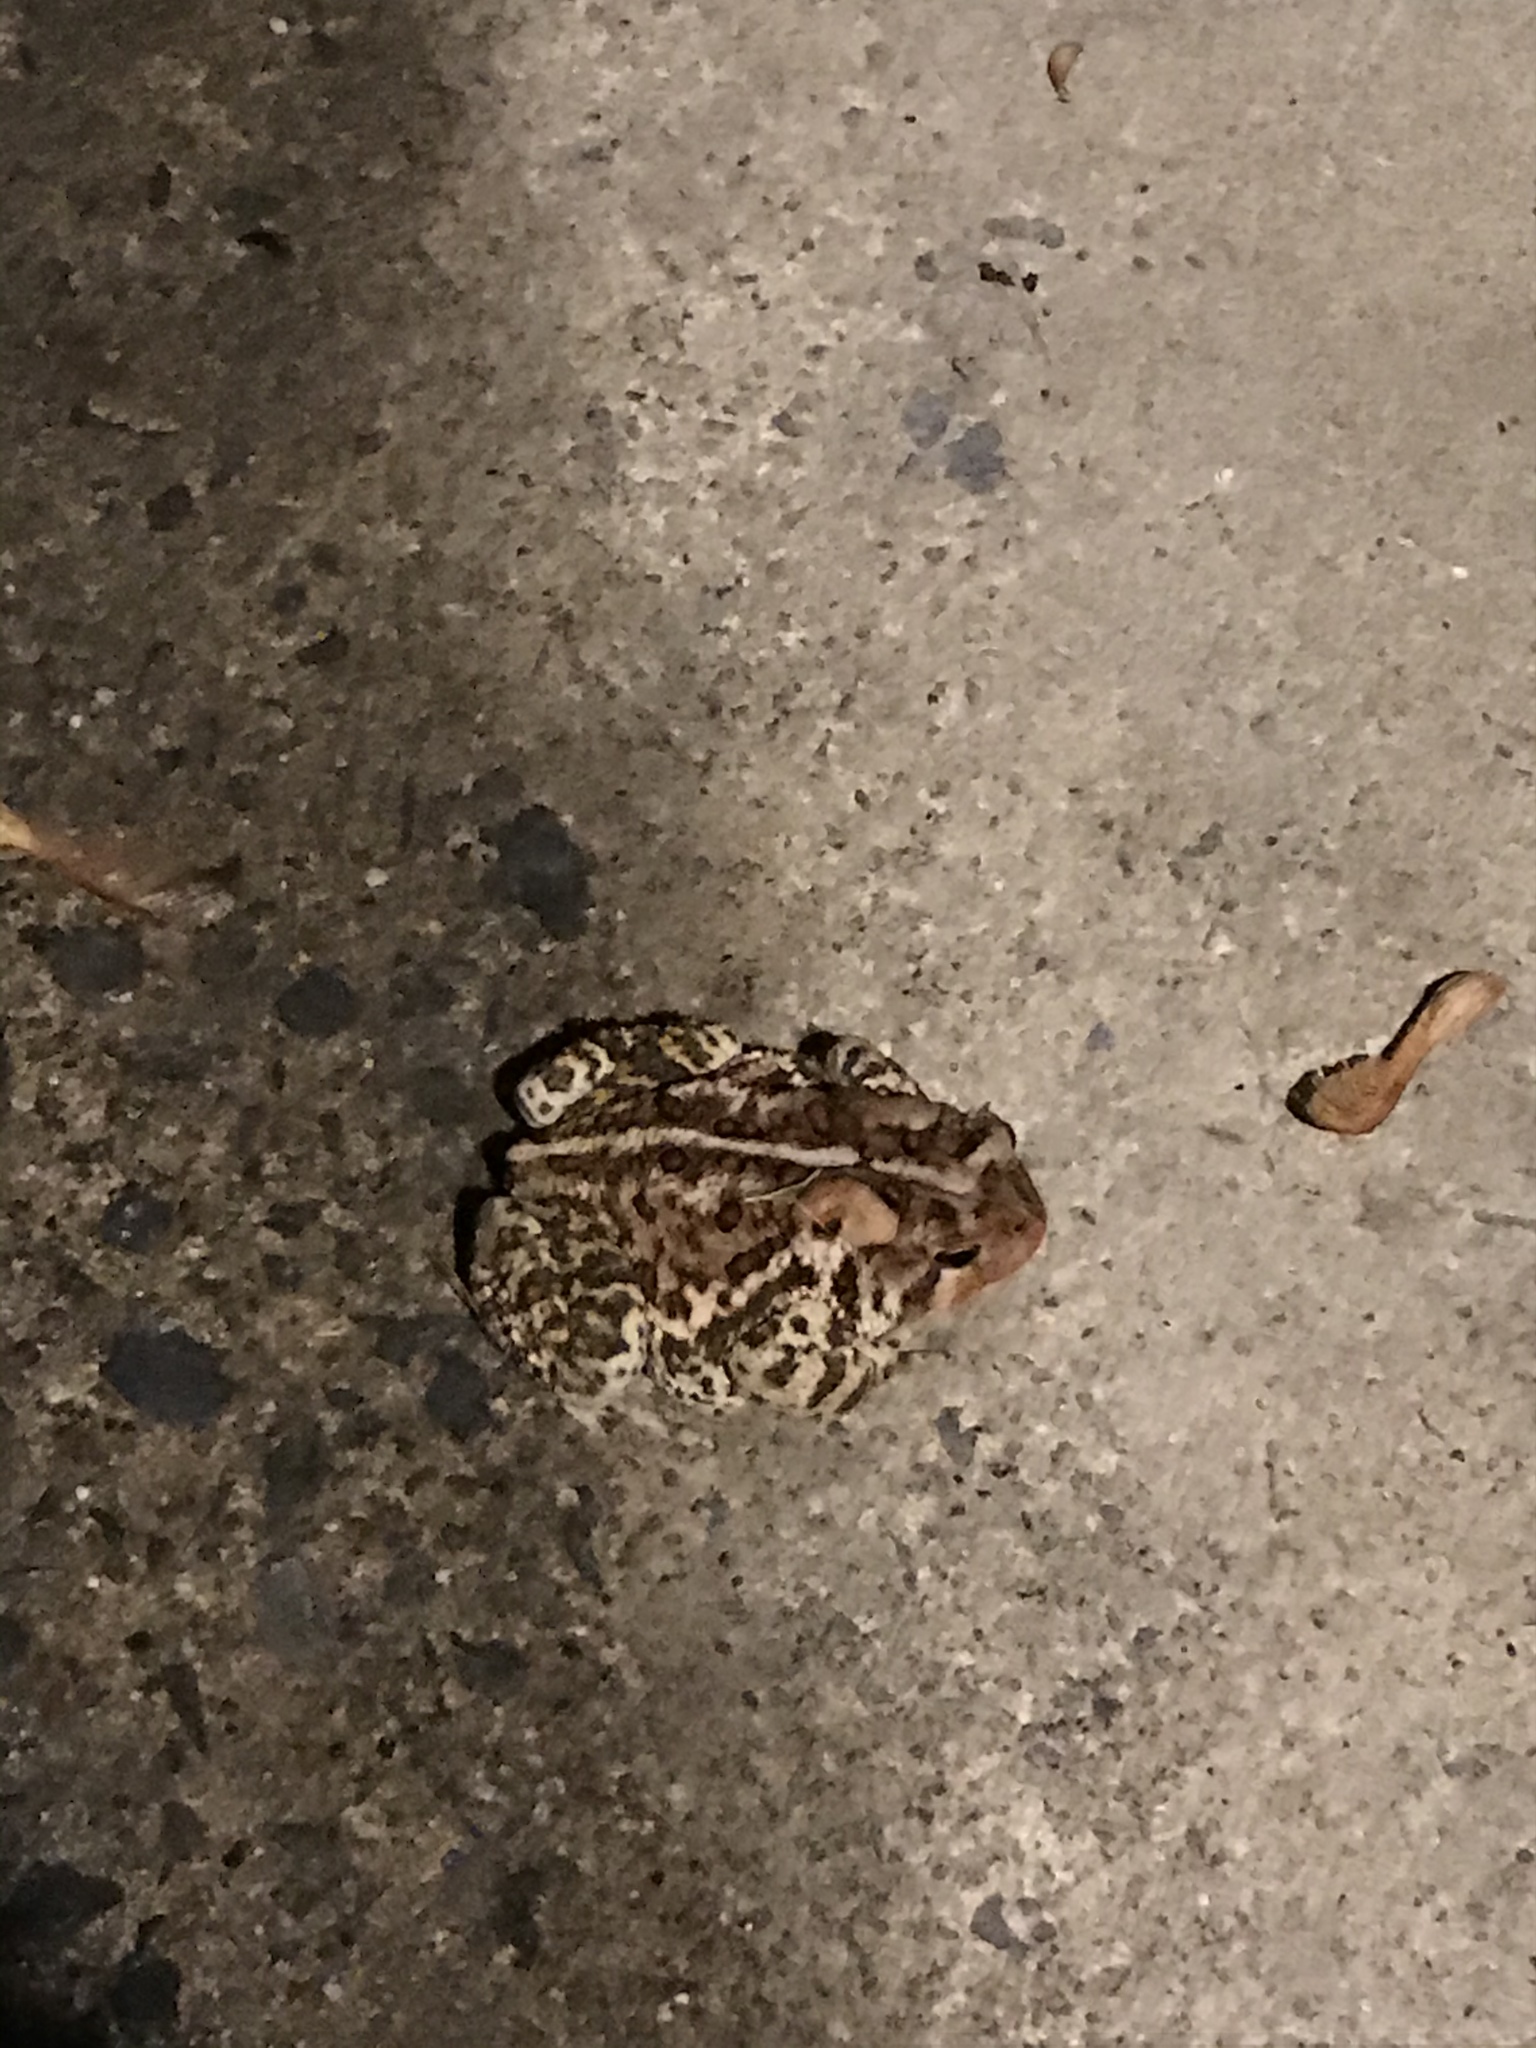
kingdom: Animalia
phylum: Chordata
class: Amphibia
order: Anura
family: Bufonidae
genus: Anaxyrus
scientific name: Anaxyrus americanus
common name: American toad
